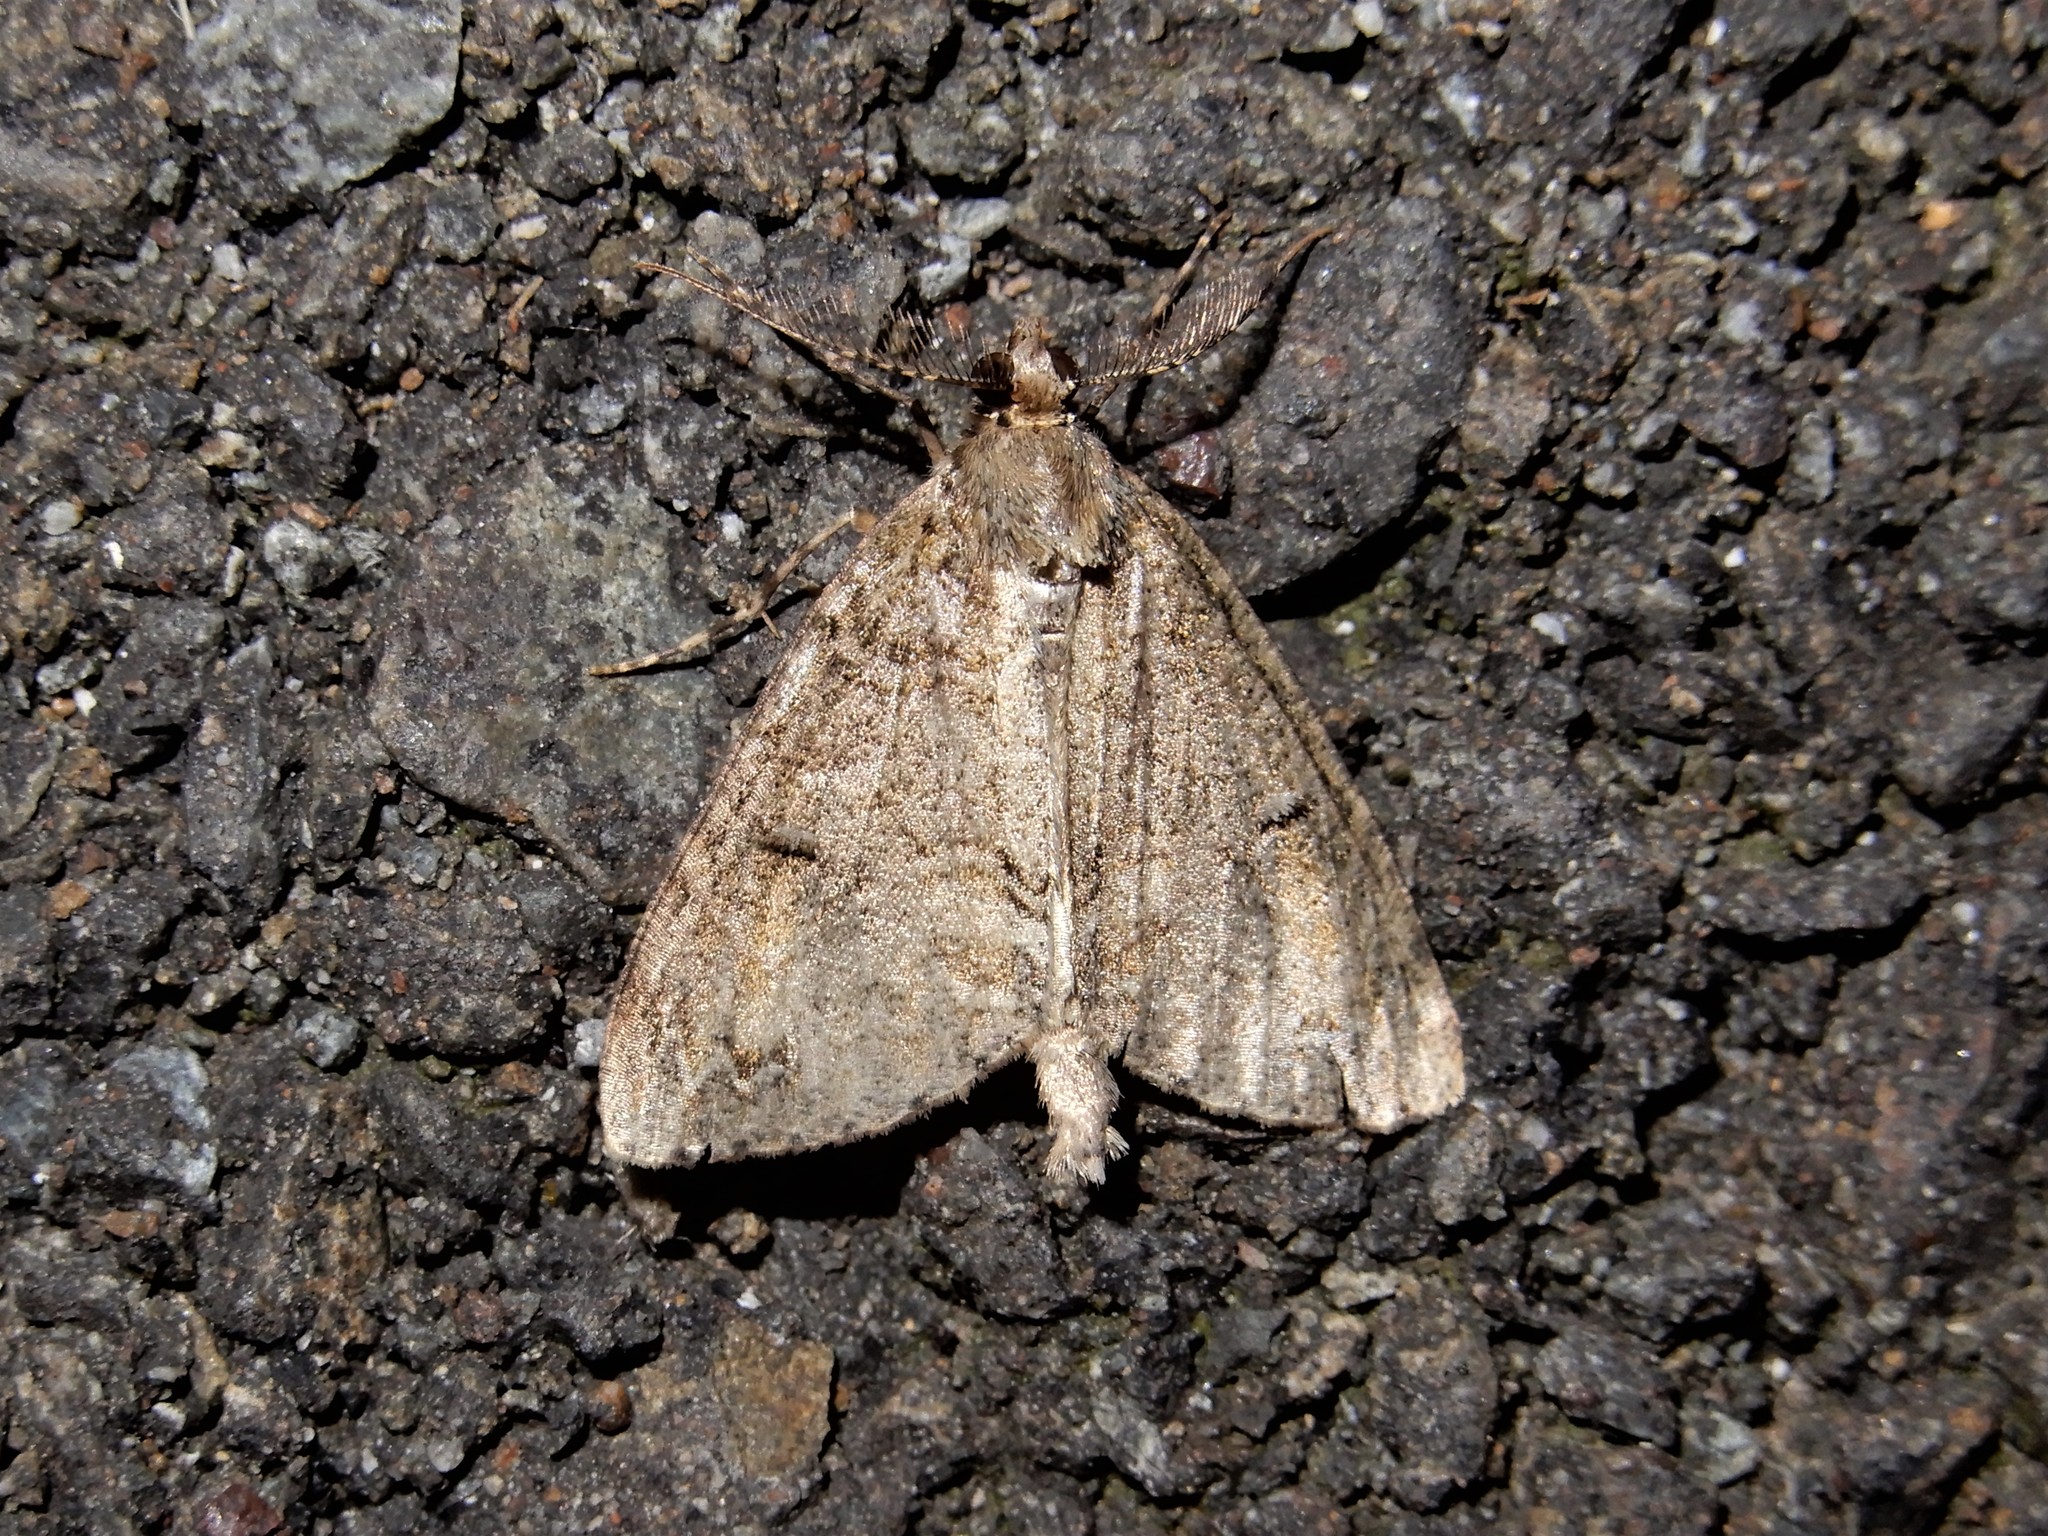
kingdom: Animalia
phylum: Arthropoda
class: Insecta
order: Lepidoptera
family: Geometridae
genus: Pseudocoremia
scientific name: Pseudocoremia suavis
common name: Common forest looper
